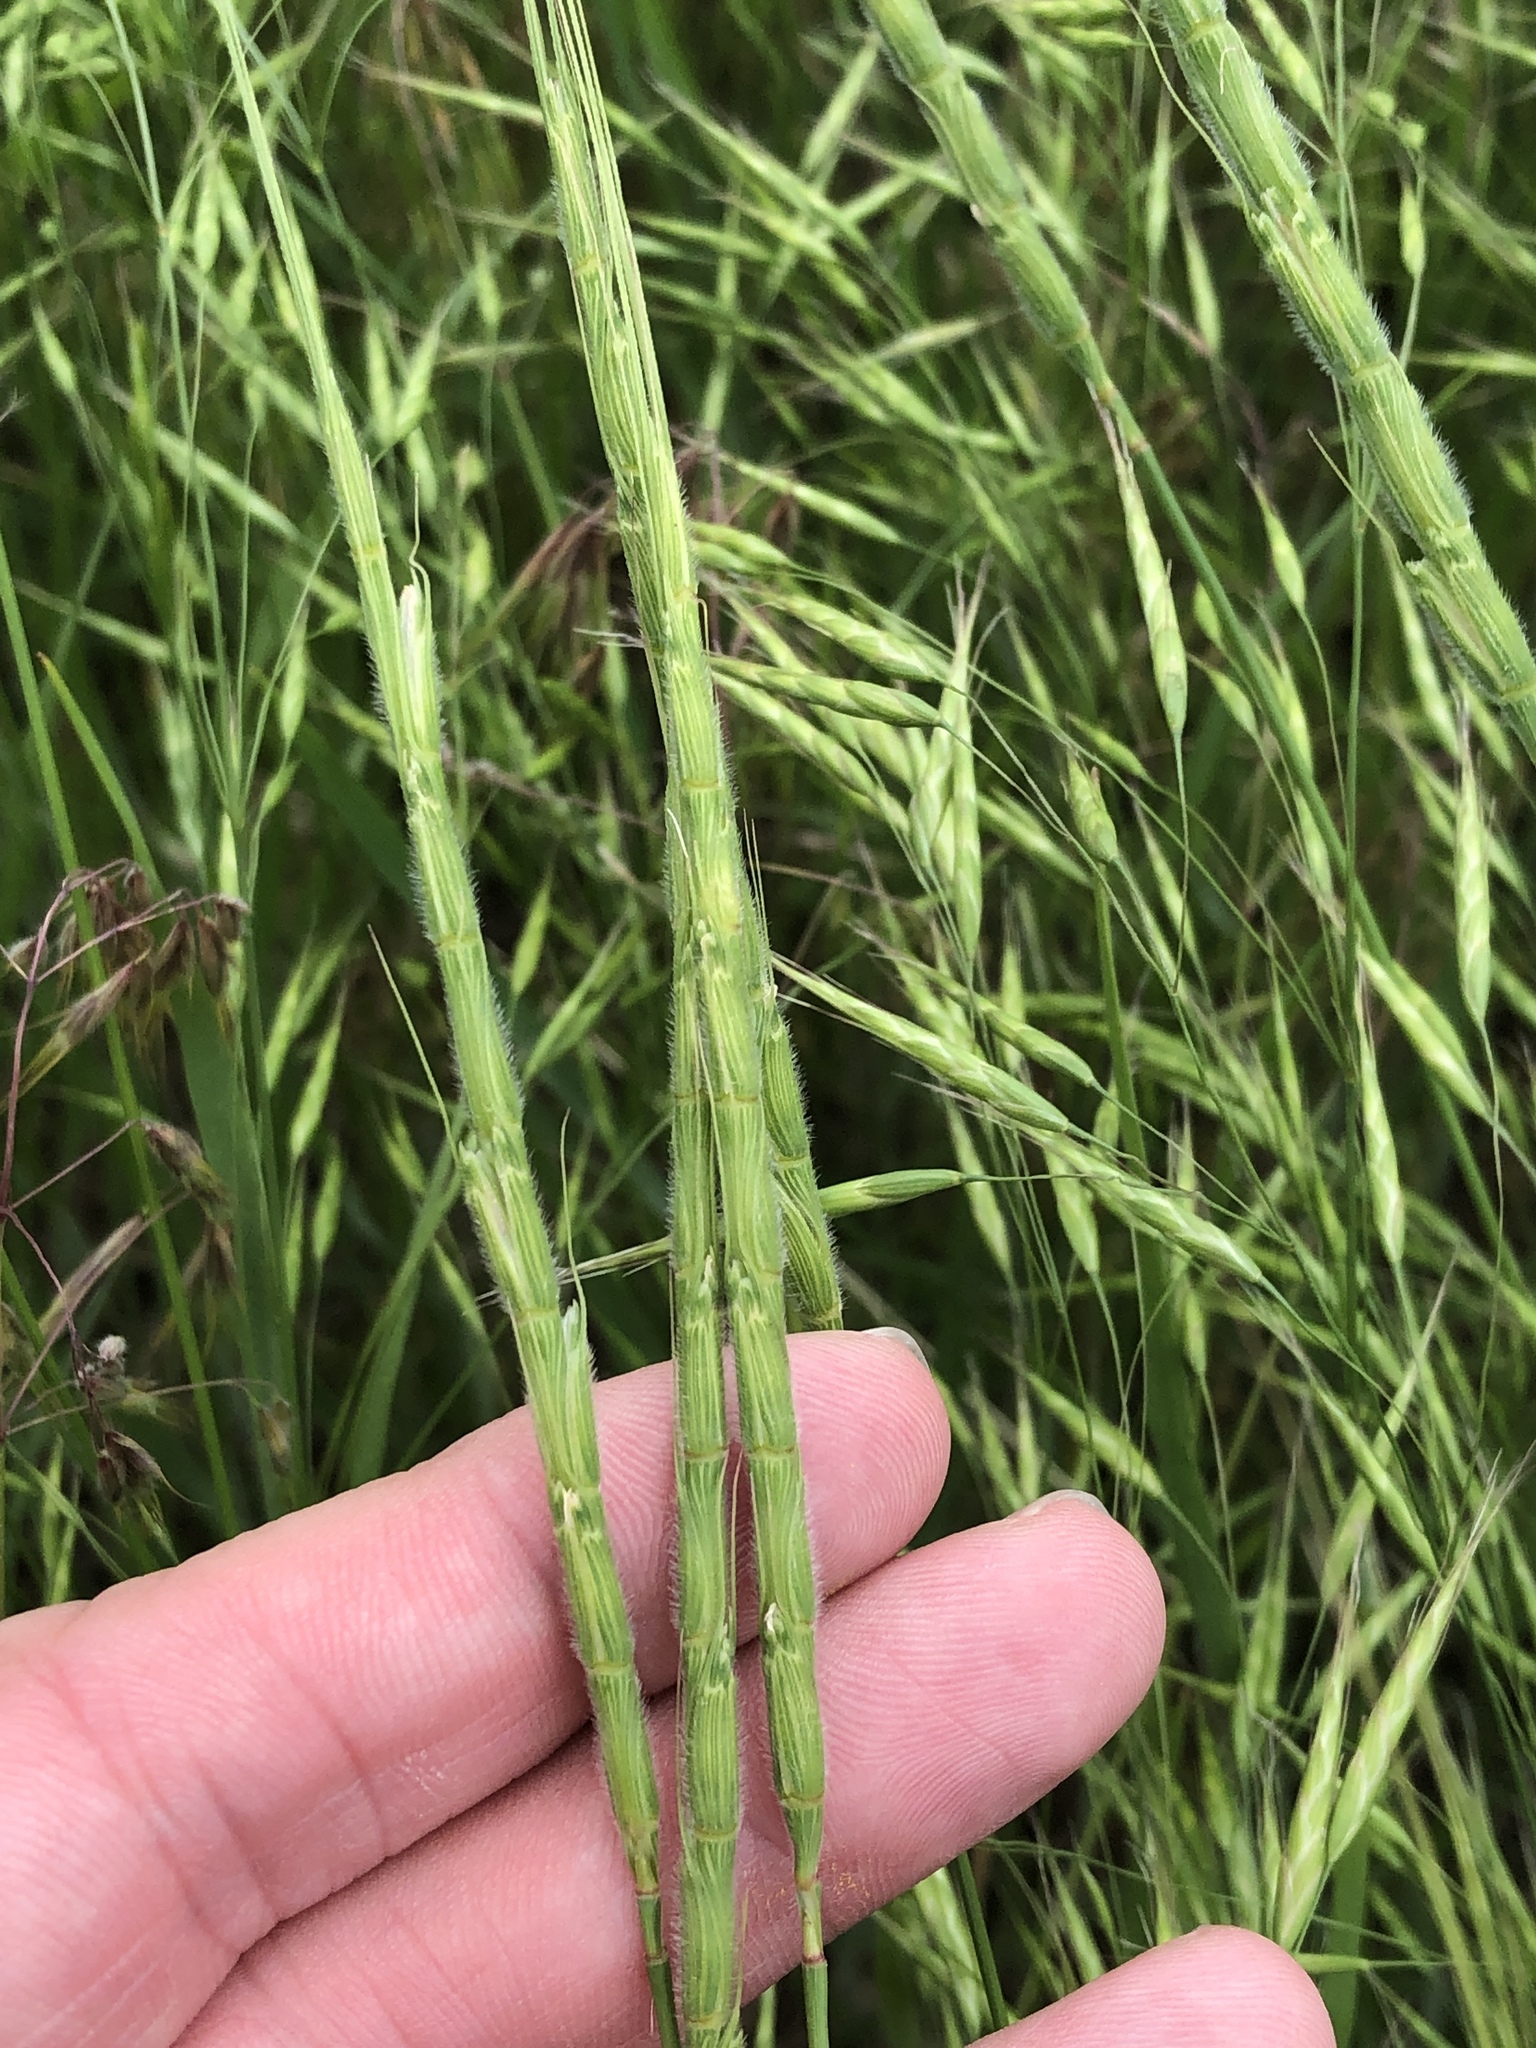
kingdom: Plantae
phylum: Tracheophyta
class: Liliopsida
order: Poales
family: Poaceae
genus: Aegilops
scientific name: Aegilops cylindrica
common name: Jointed goatgrass
